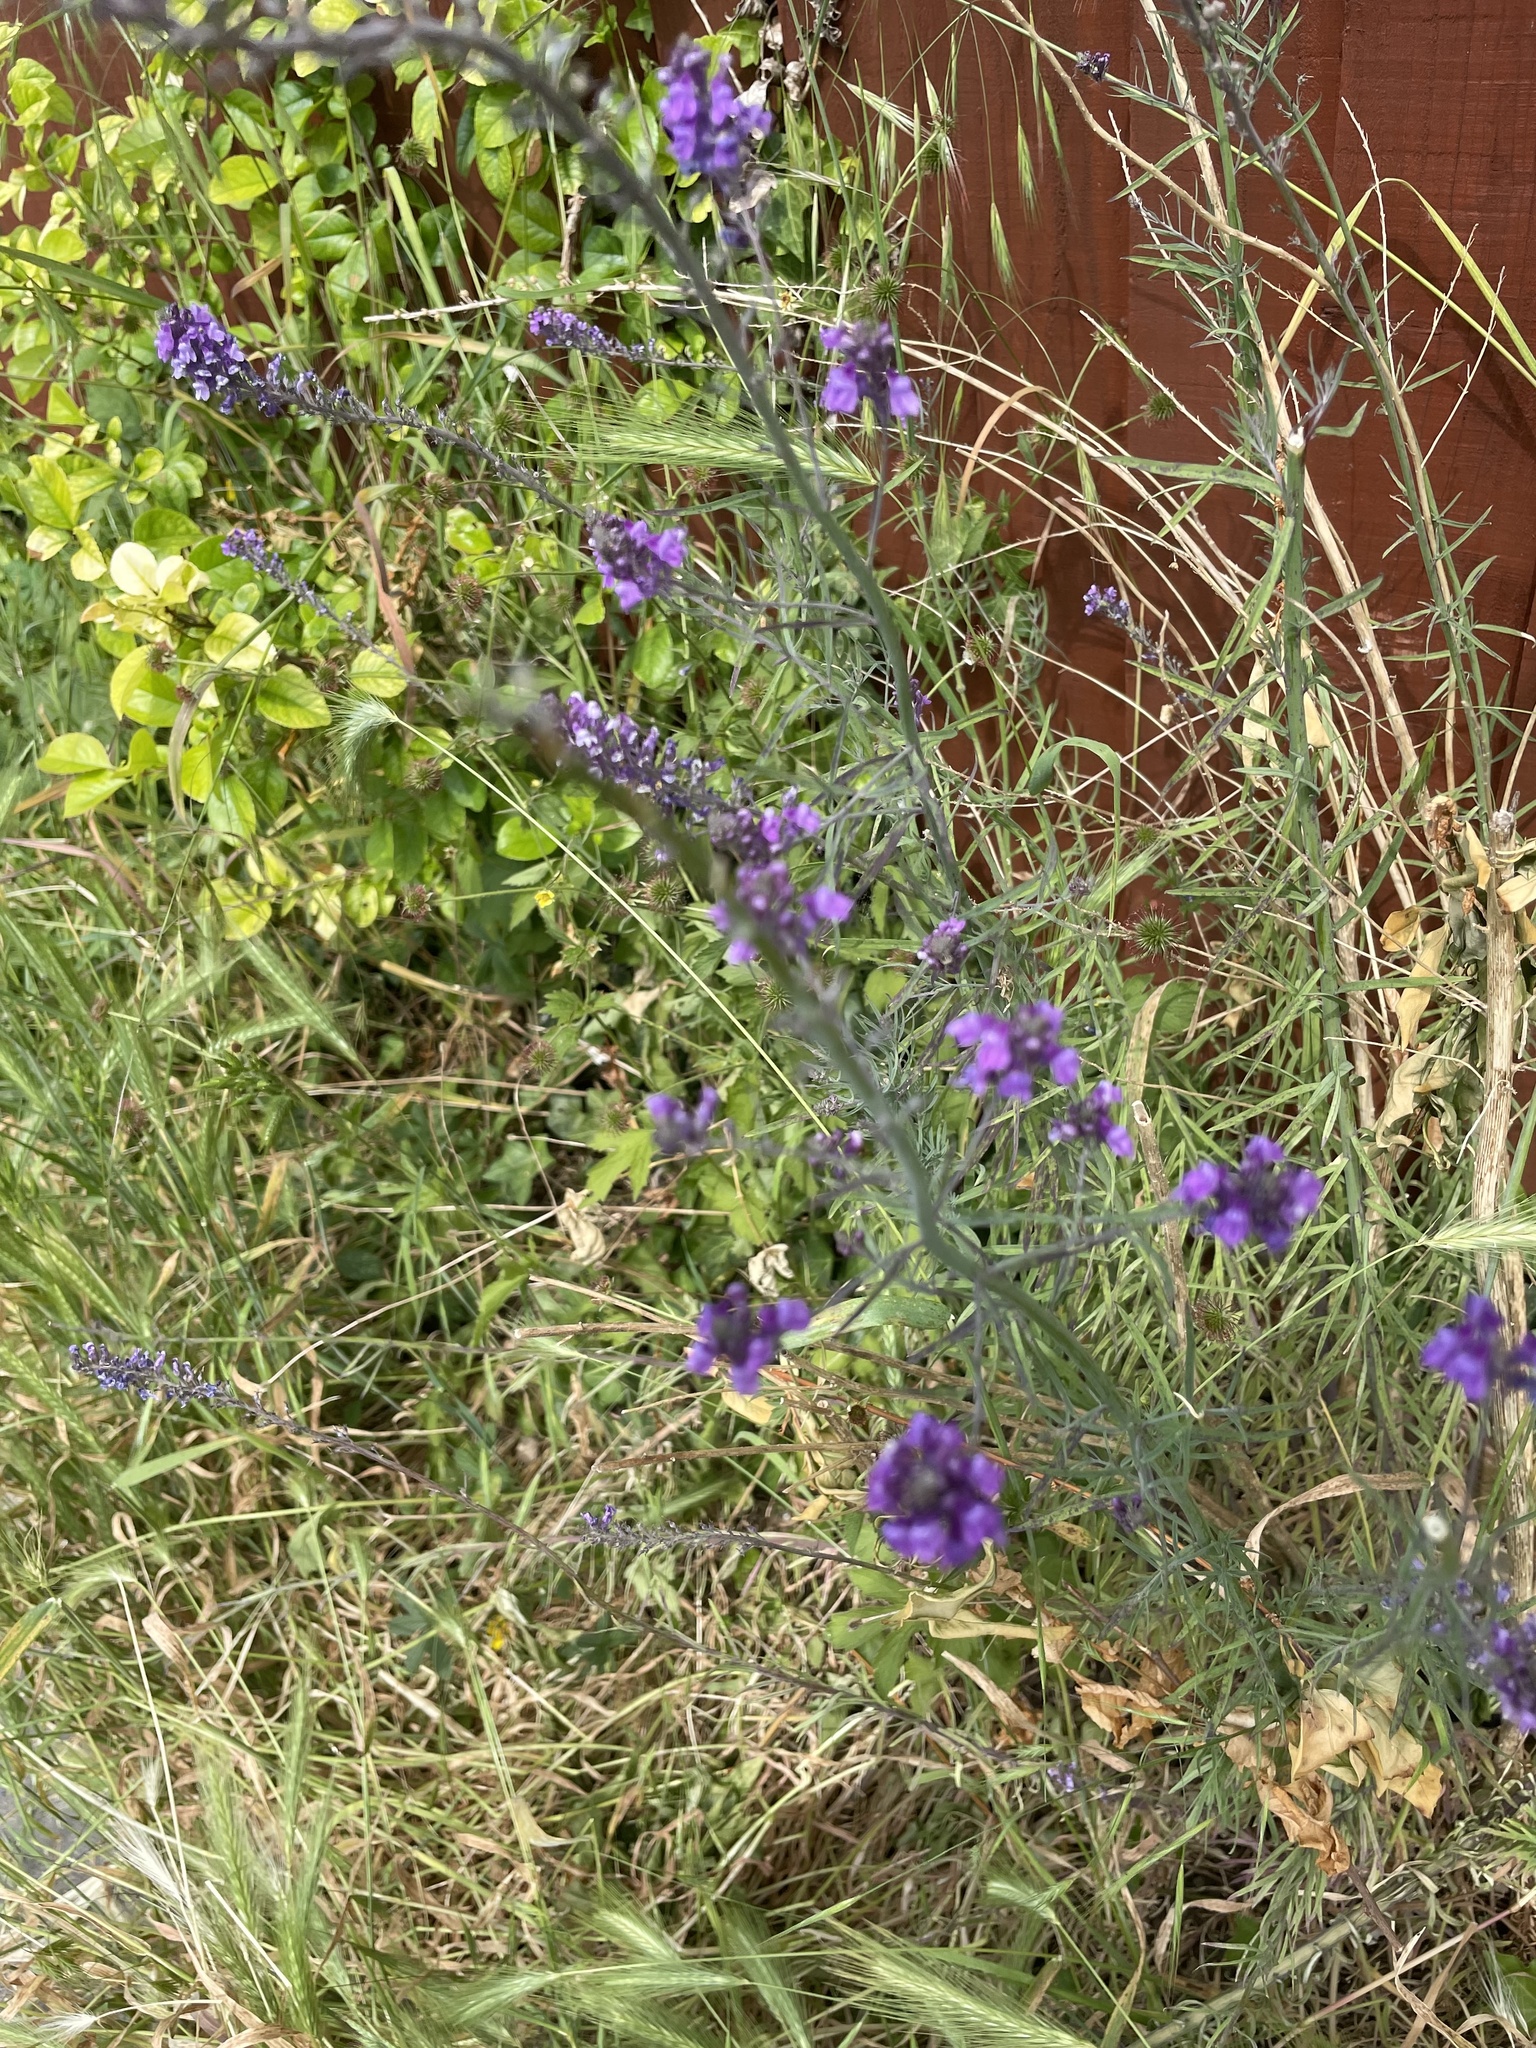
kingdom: Plantae
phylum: Tracheophyta
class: Magnoliopsida
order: Lamiales
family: Plantaginaceae
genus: Linaria
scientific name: Linaria purpurea
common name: Purple toadflax
